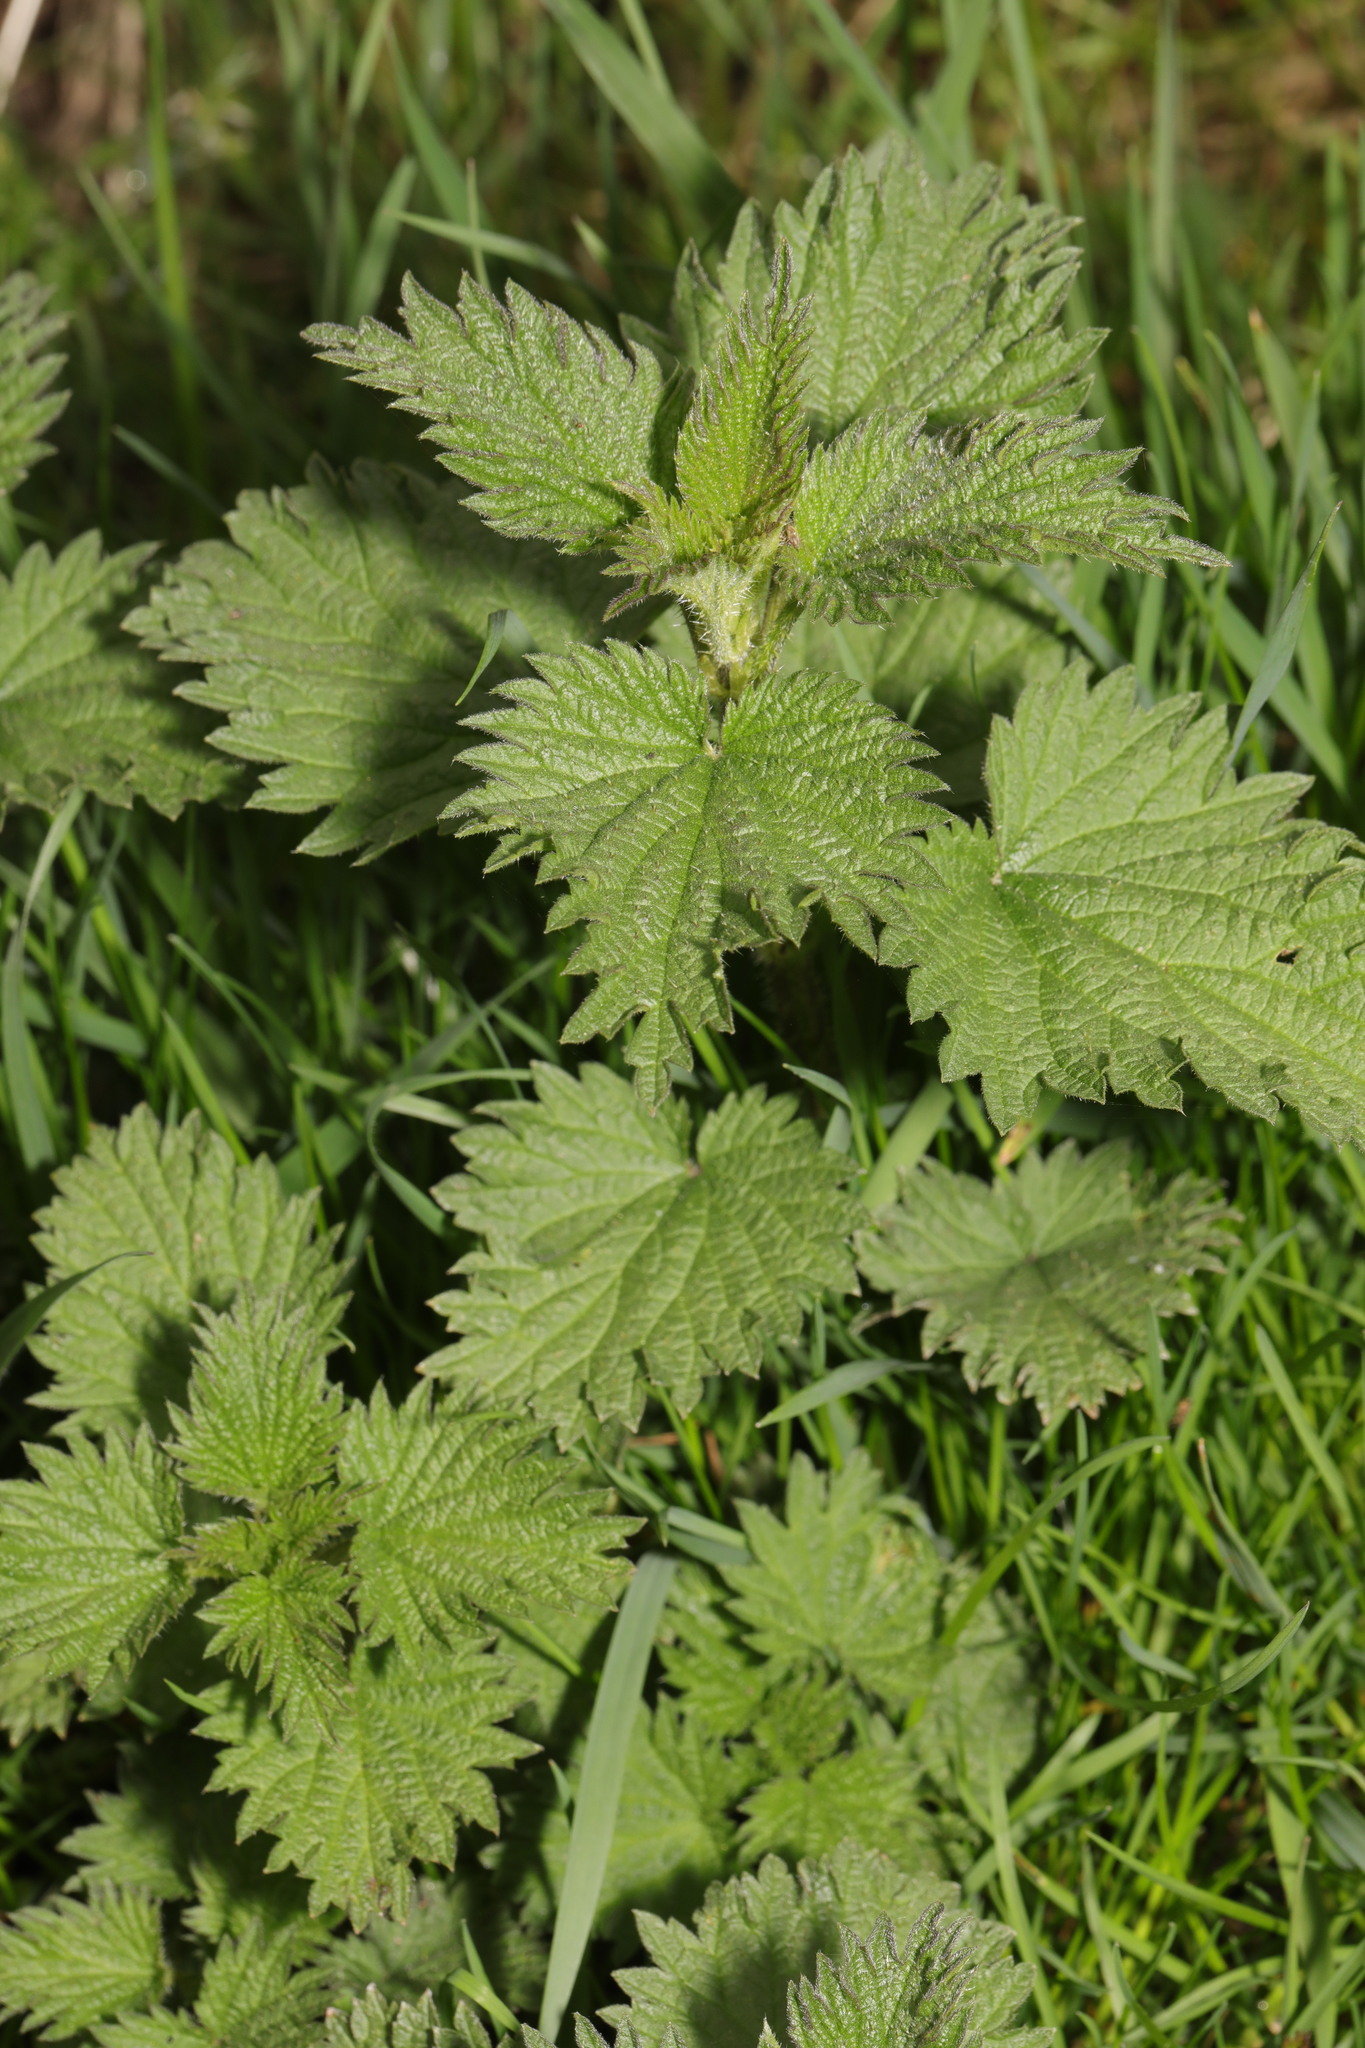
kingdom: Plantae
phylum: Tracheophyta
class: Magnoliopsida
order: Rosales
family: Urticaceae
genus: Urtica
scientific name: Urtica dioica
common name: Common nettle
